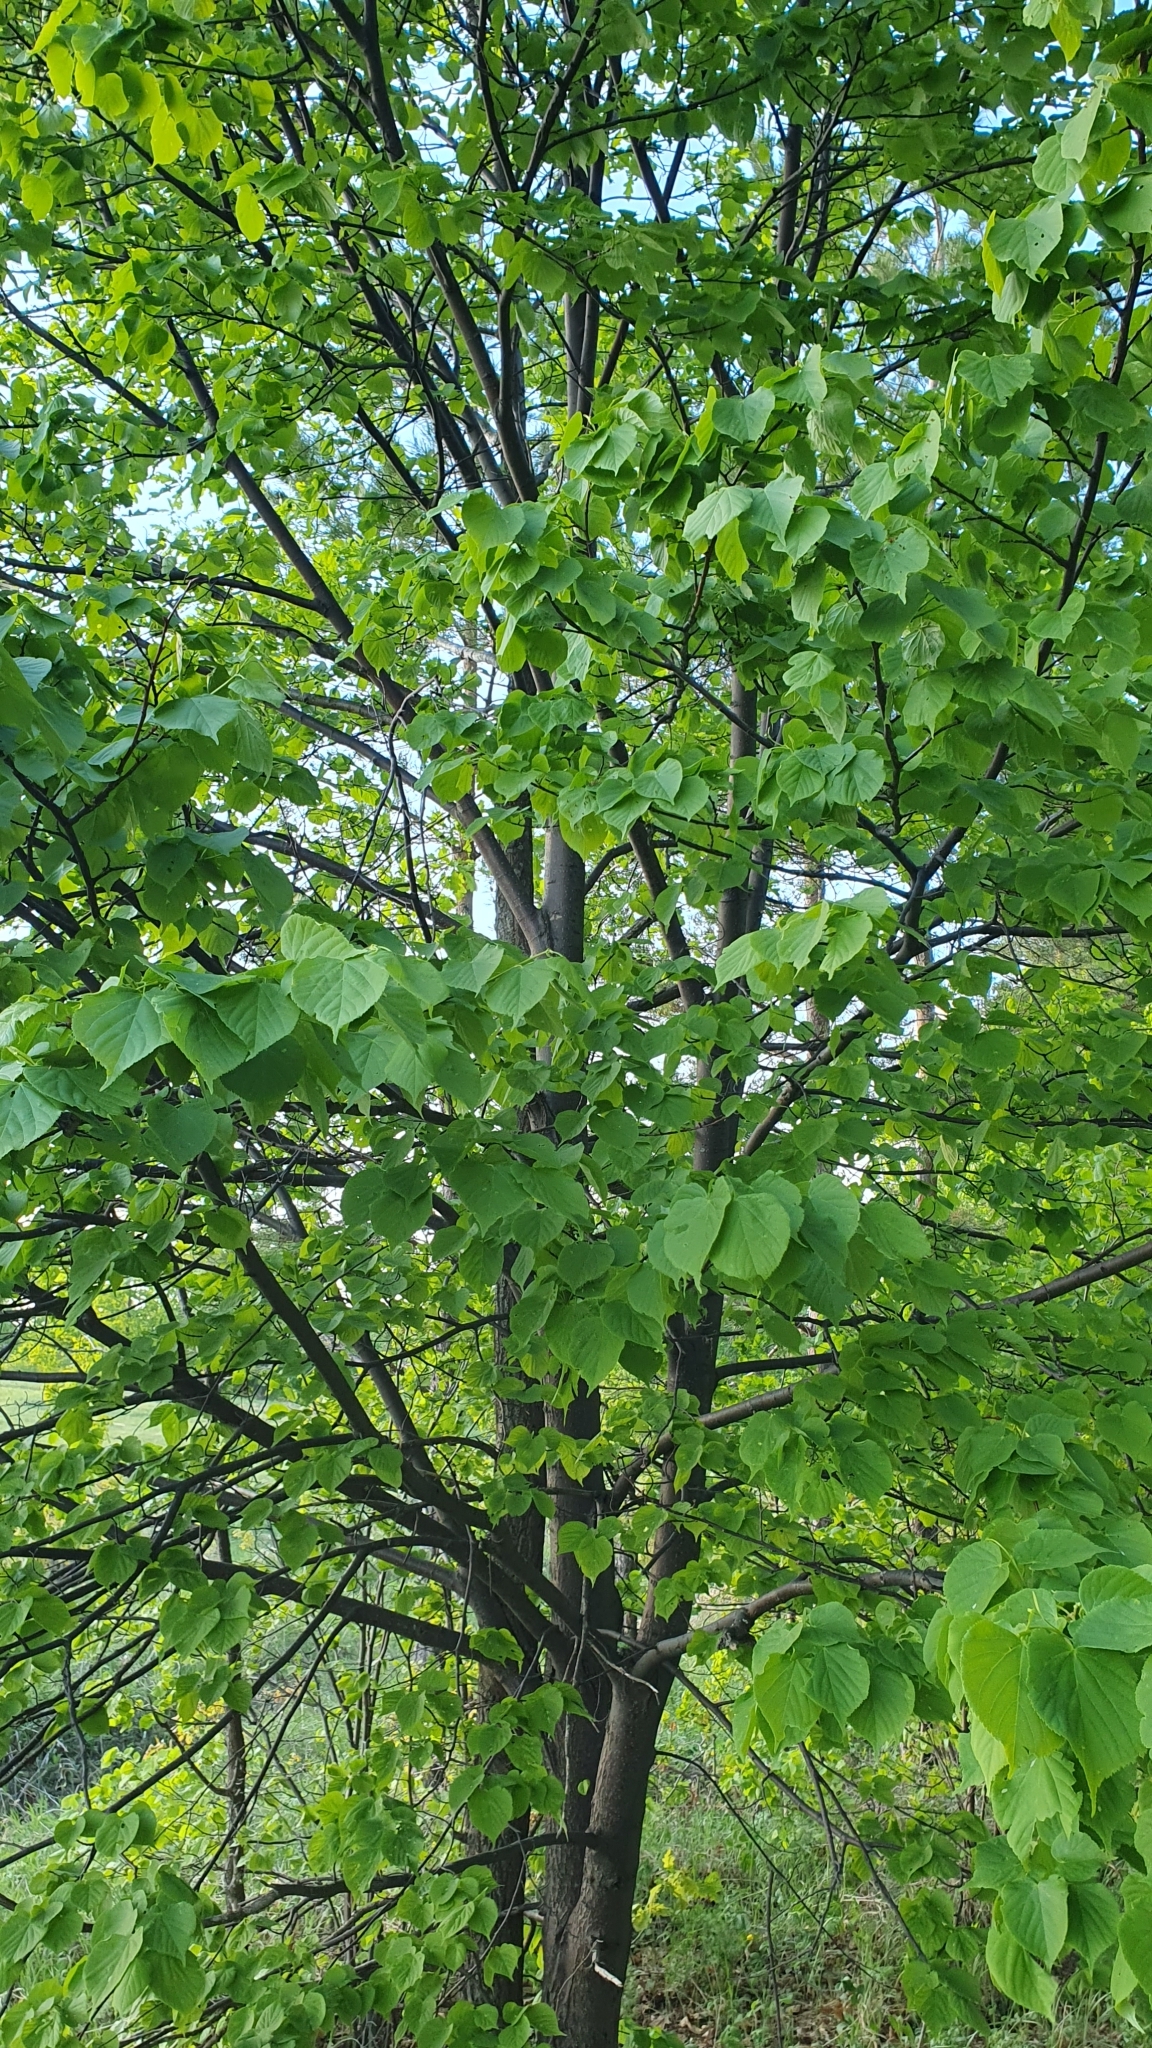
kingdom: Plantae
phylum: Tracheophyta
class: Magnoliopsida
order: Malvales
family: Malvaceae
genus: Tilia
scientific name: Tilia cordata
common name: Small-leaved lime
